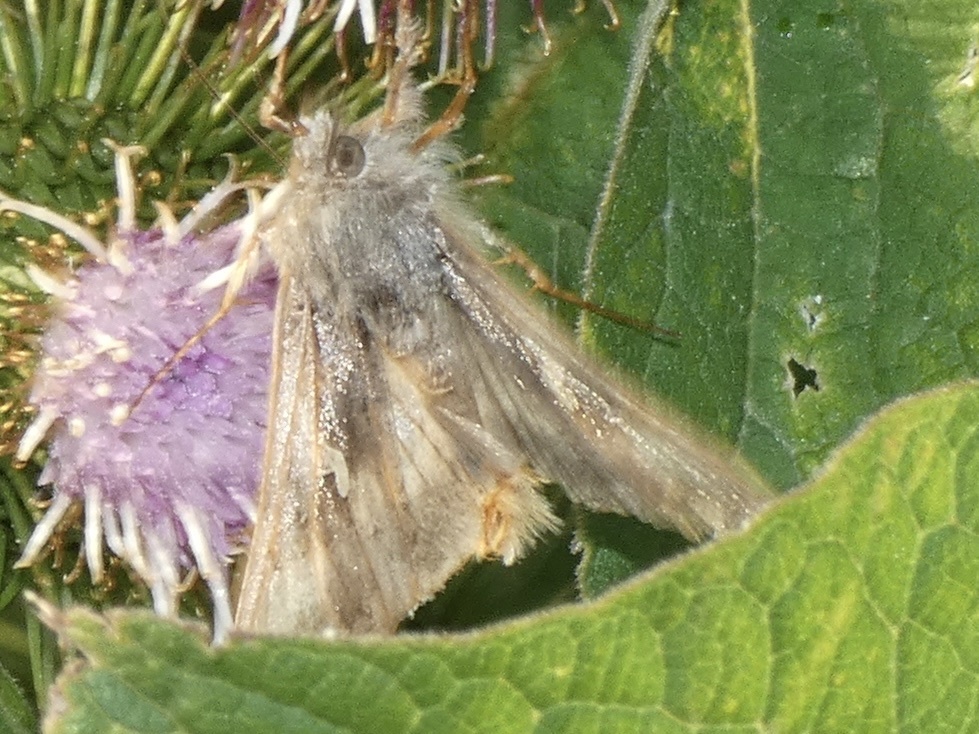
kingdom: Animalia
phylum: Arthropoda
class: Insecta
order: Lepidoptera
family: Noctuidae
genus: Autographa
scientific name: Autographa gamma
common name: Silver y
